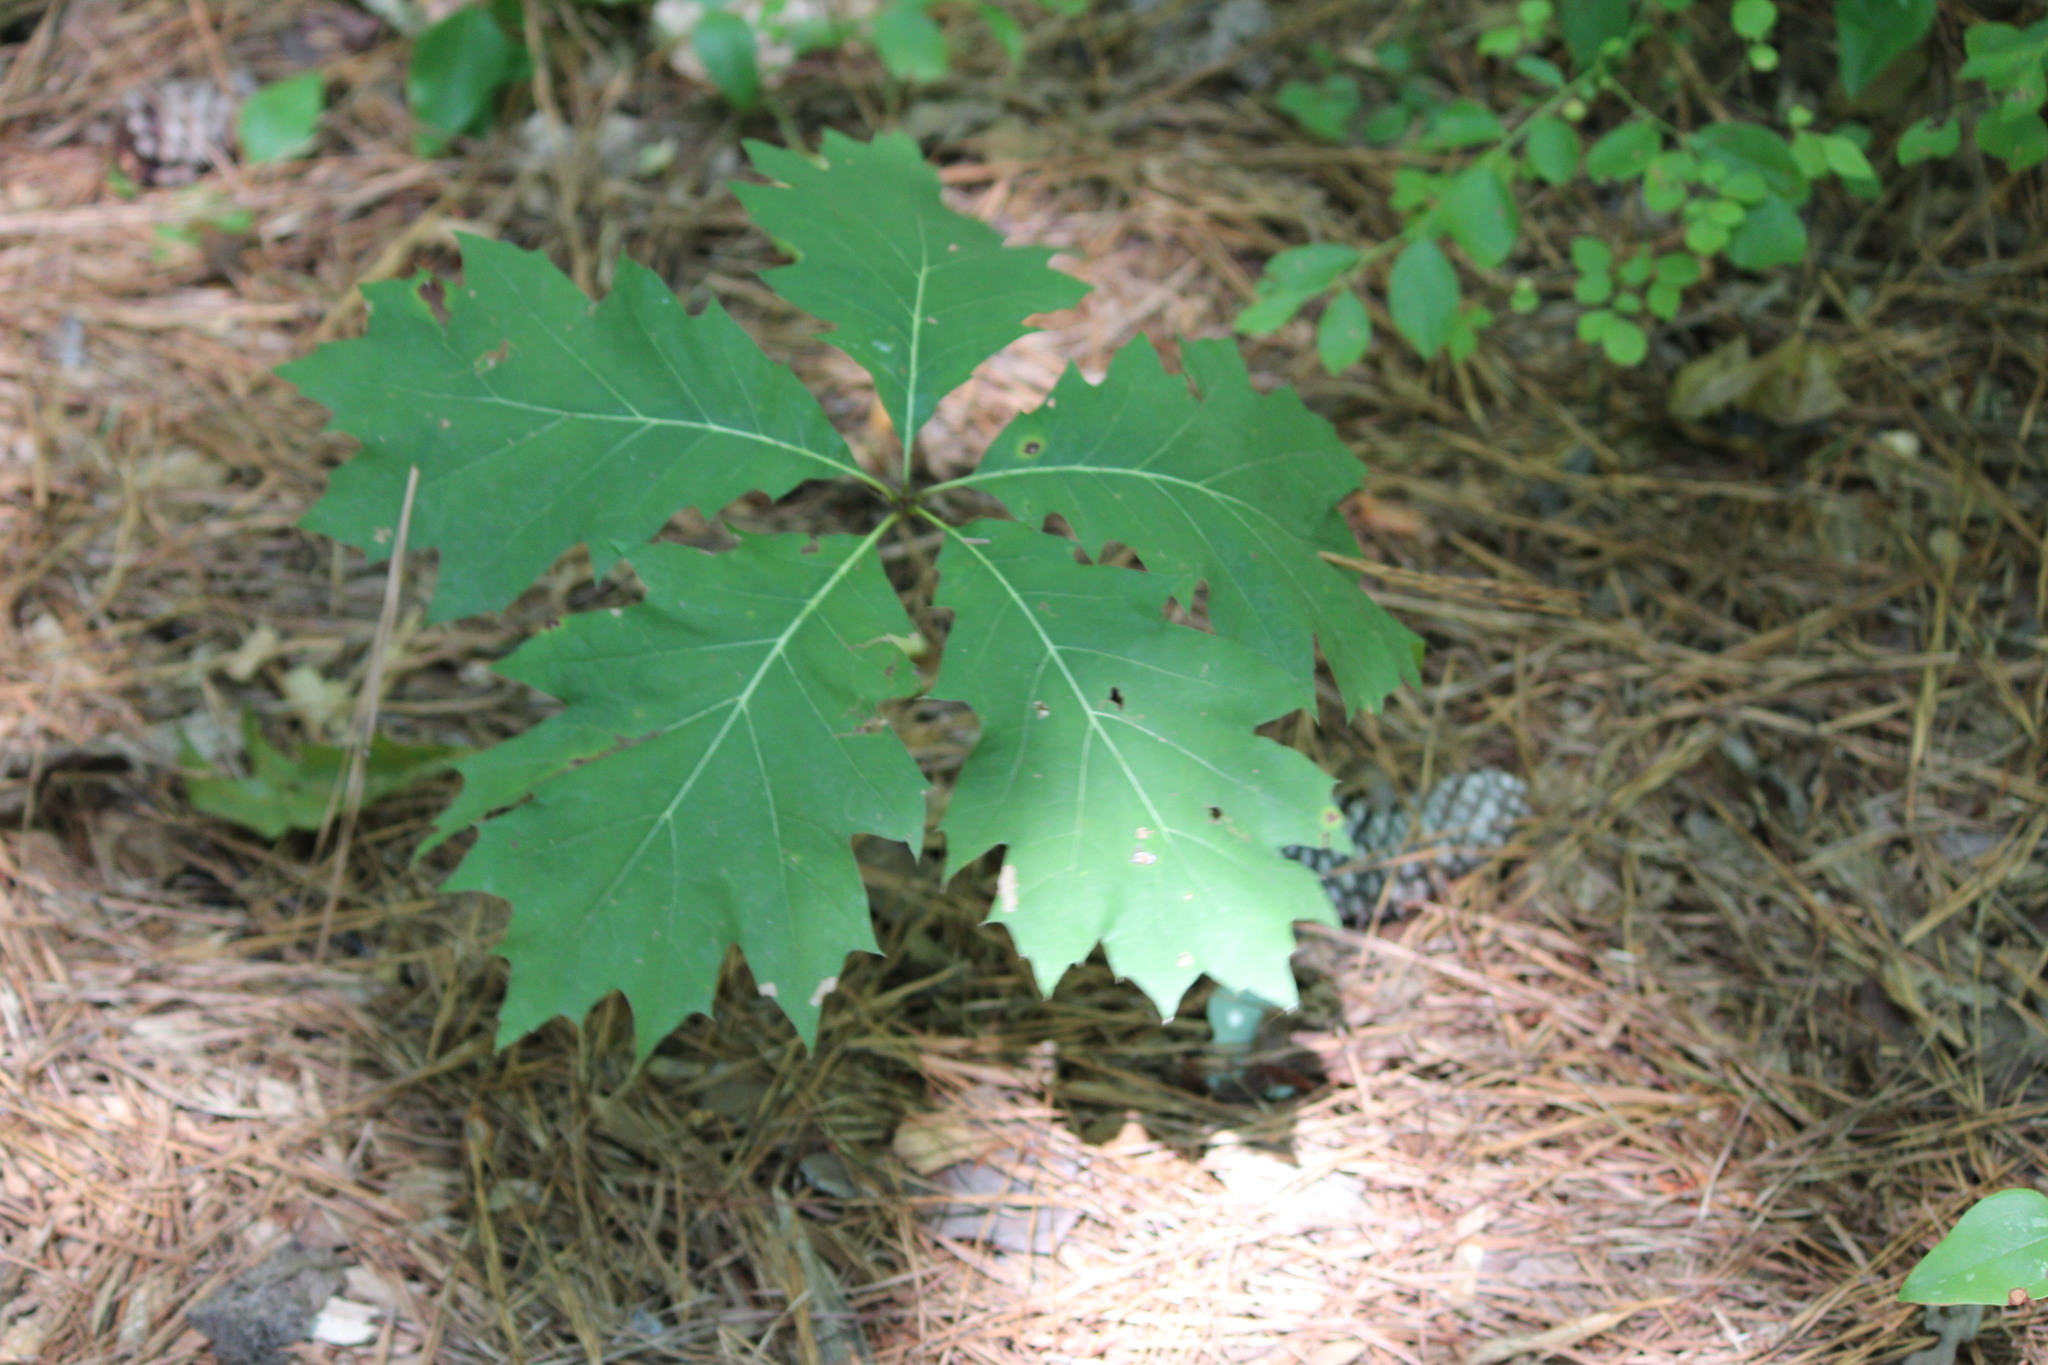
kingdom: Plantae
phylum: Tracheophyta
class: Magnoliopsida
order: Fagales
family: Fagaceae
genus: Quercus
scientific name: Quercus rubra
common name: Red oak
